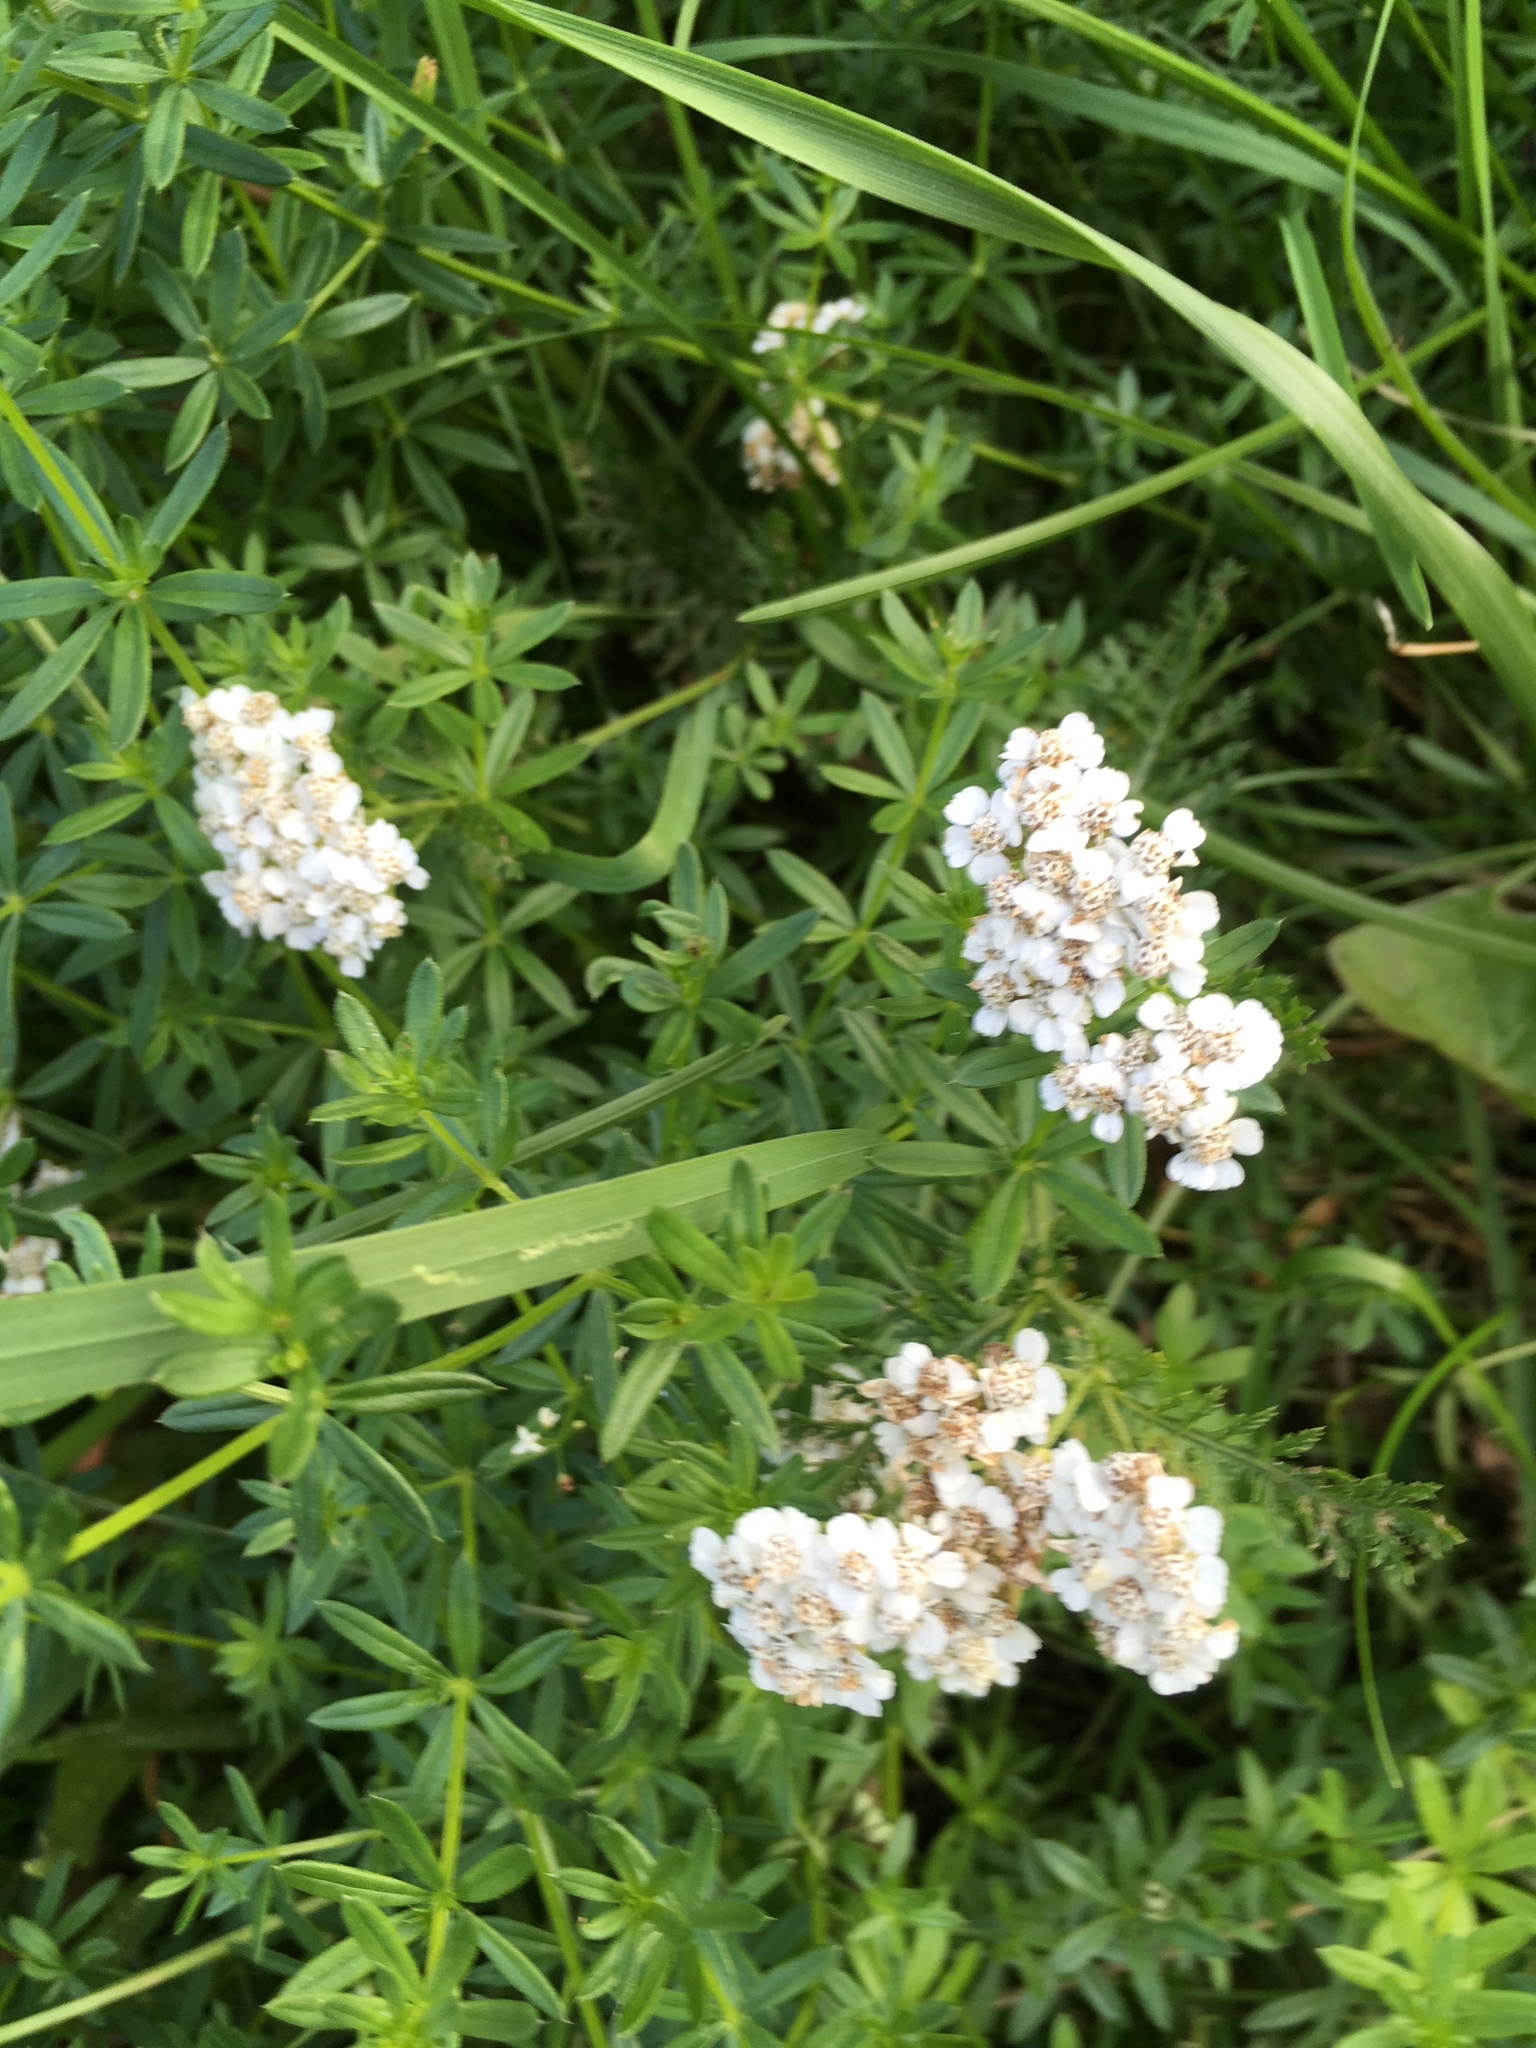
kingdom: Plantae
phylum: Tracheophyta
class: Magnoliopsida
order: Asterales
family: Asteraceae
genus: Achillea
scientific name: Achillea millefolium
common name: Yarrow
